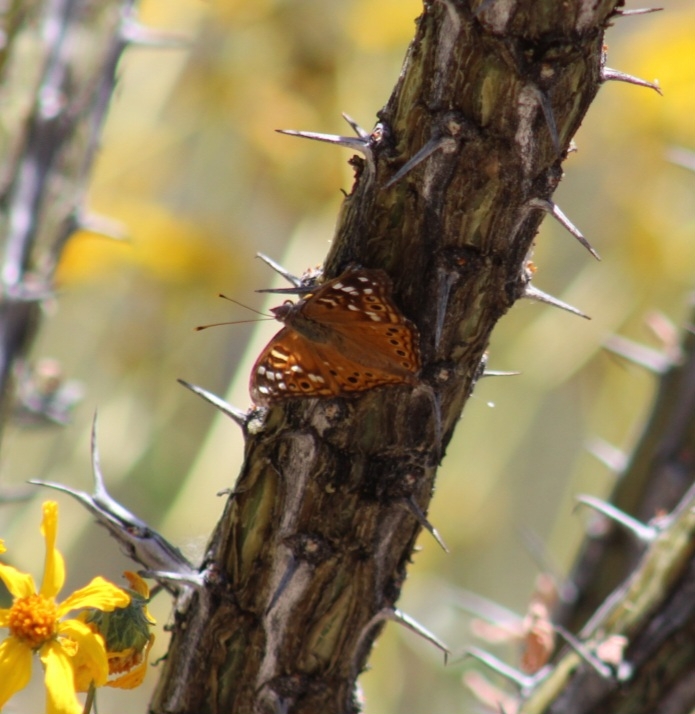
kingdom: Animalia
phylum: Arthropoda
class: Insecta
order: Lepidoptera
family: Nymphalidae
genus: Asterocampa
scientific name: Asterocampa leilia
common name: Empress leilia
